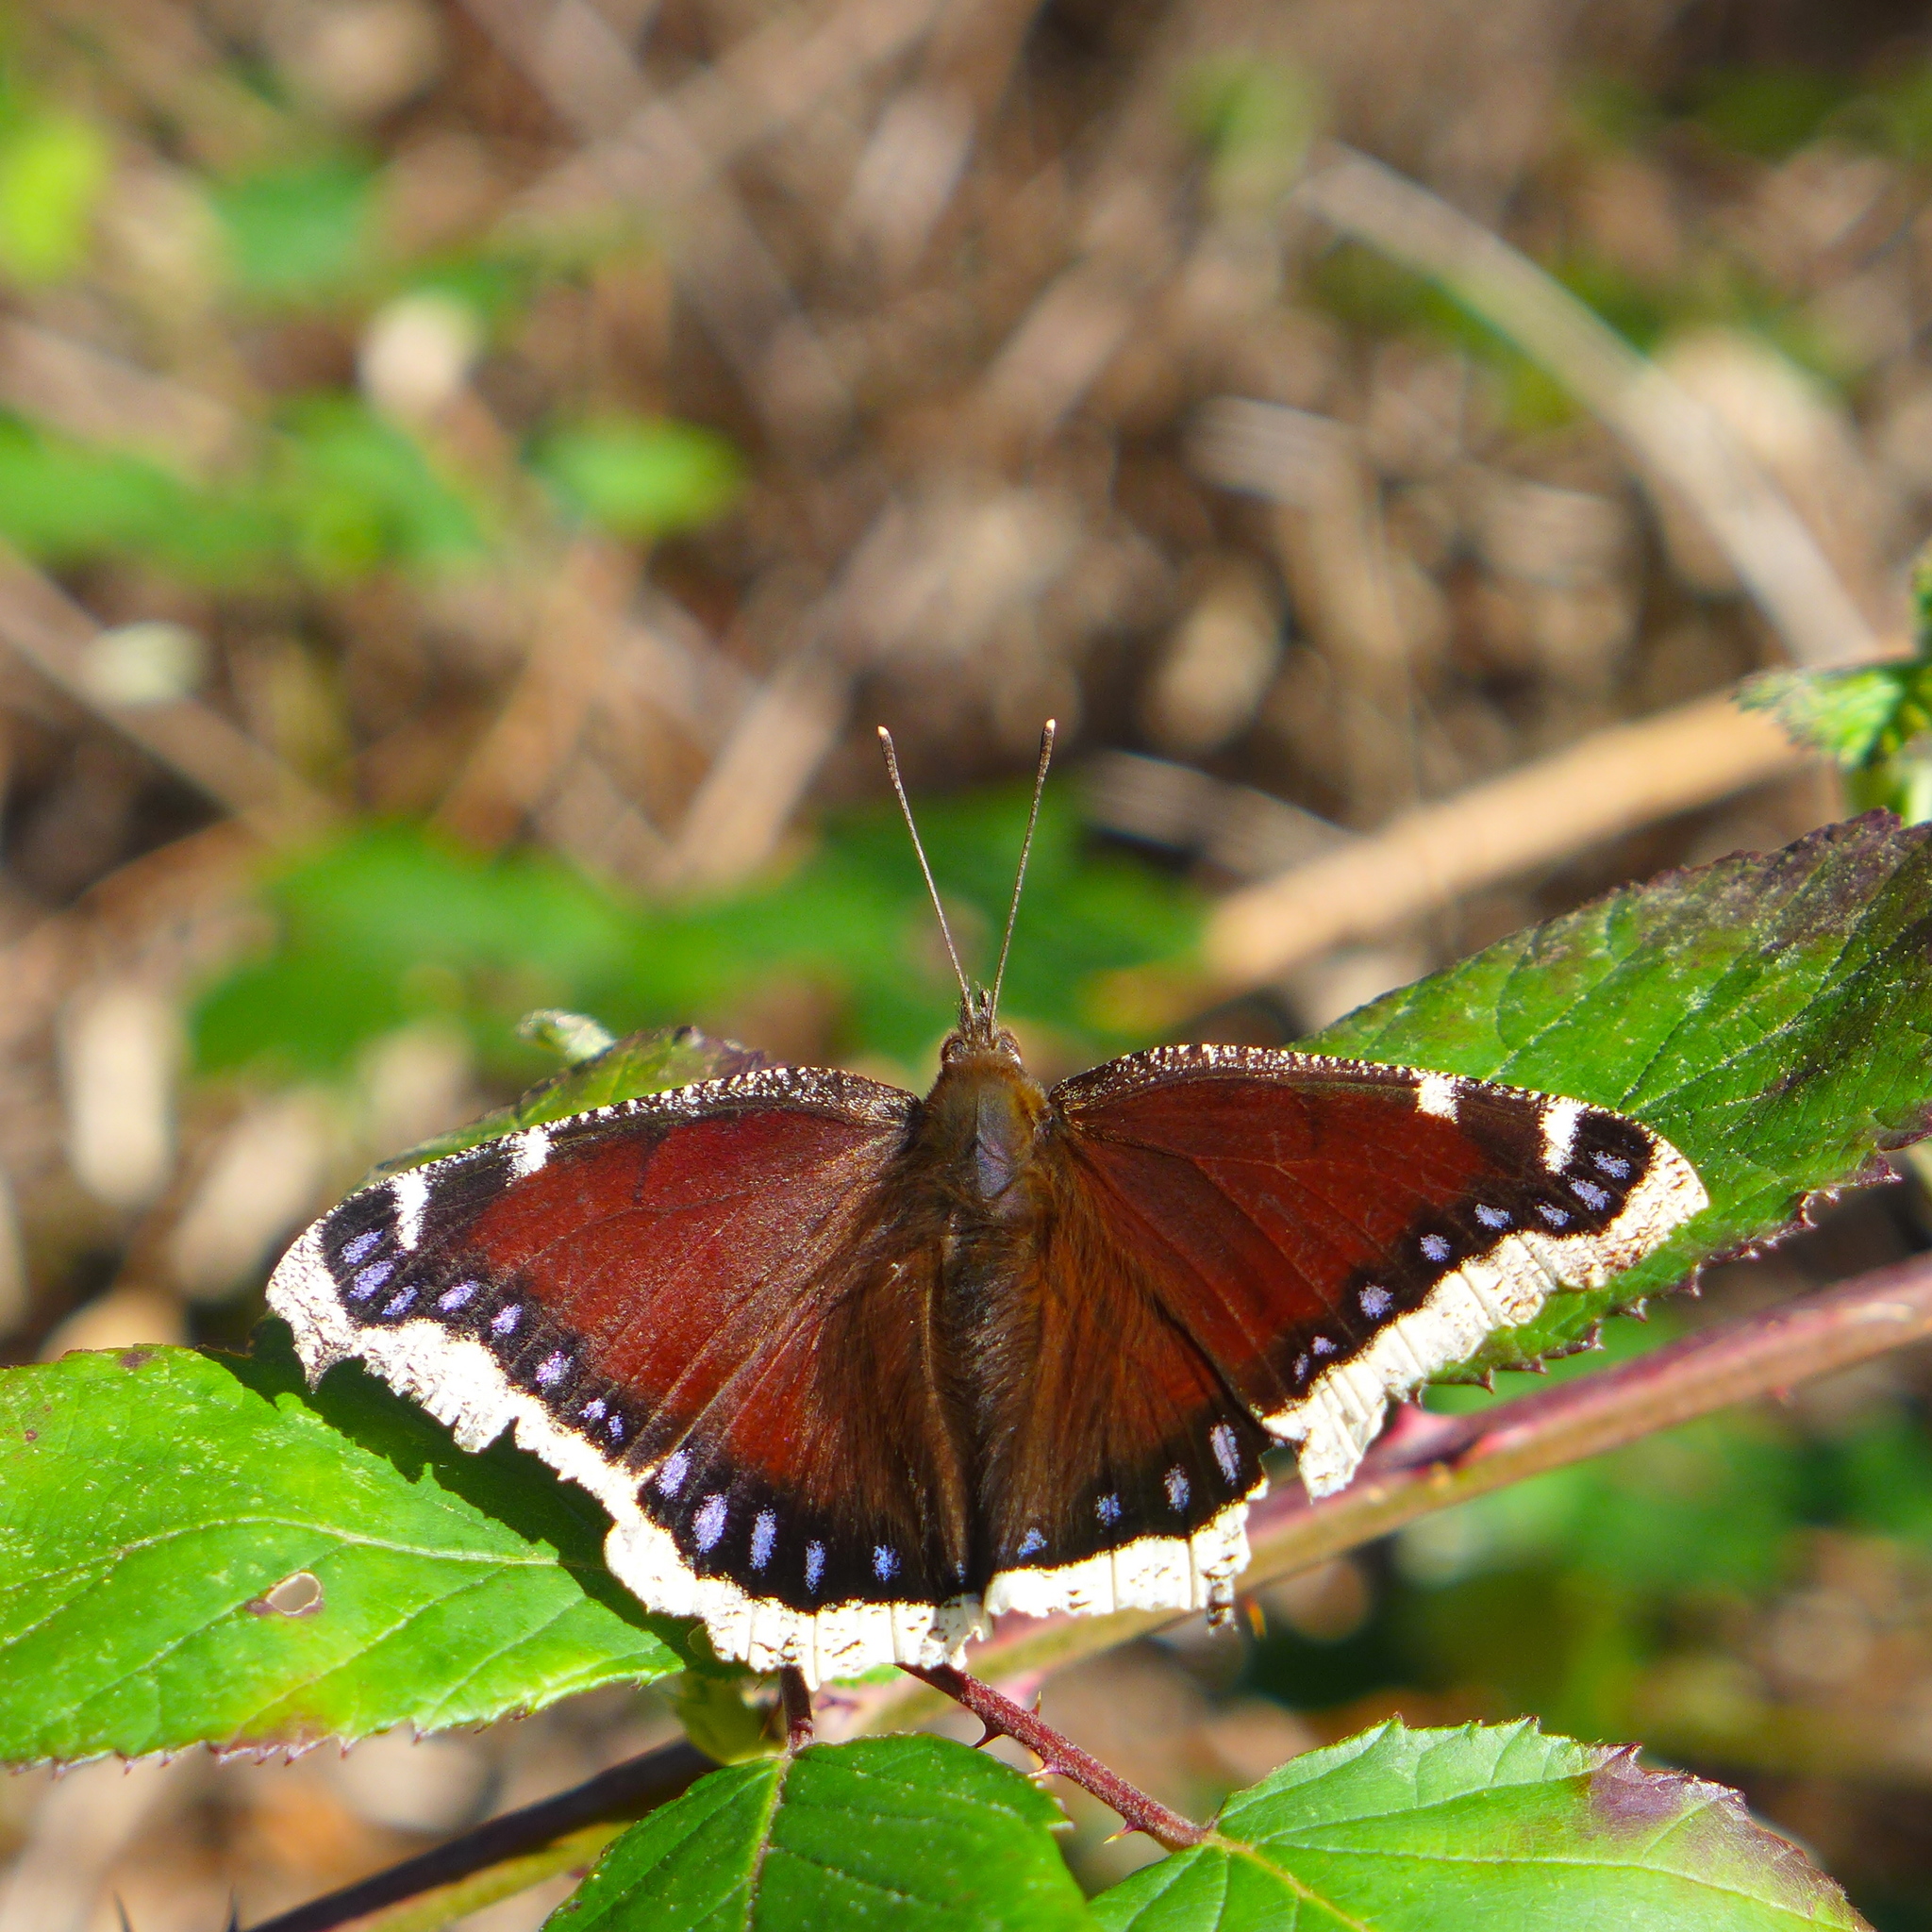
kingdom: Animalia
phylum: Arthropoda
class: Insecta
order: Lepidoptera
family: Nymphalidae
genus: Nymphalis
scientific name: Nymphalis antiopa
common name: Camberwell beauty
